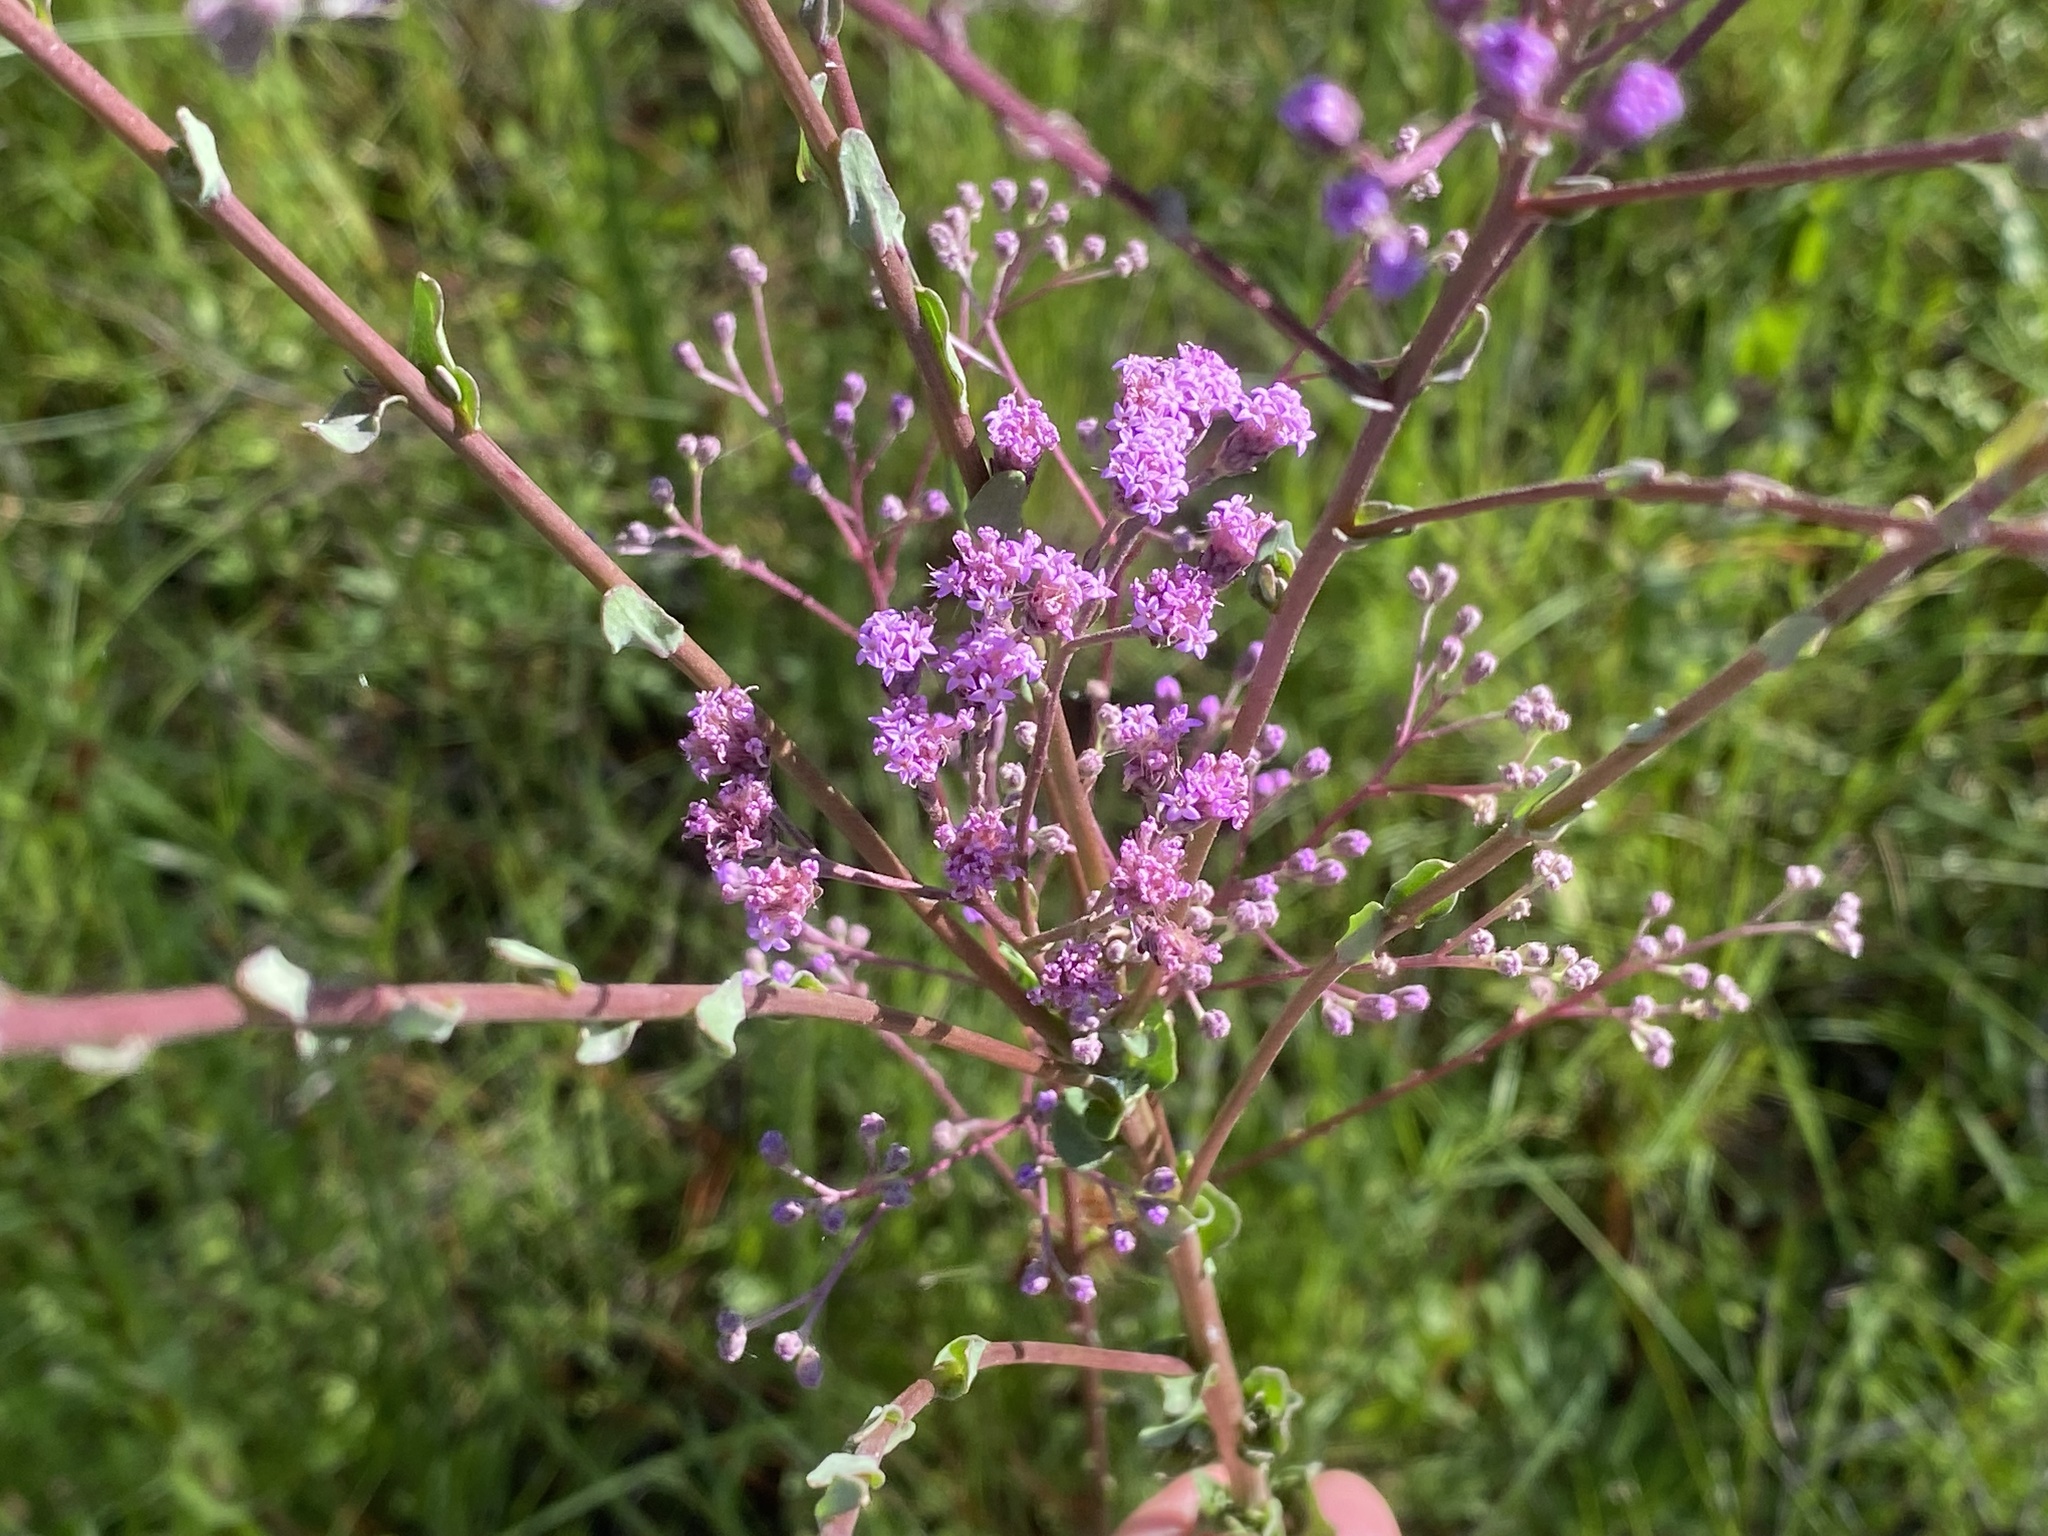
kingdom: Plantae
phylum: Tracheophyta
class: Magnoliopsida
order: Asterales
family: Asteraceae
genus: Carphephorus
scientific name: Carphephorus odoratissimus
